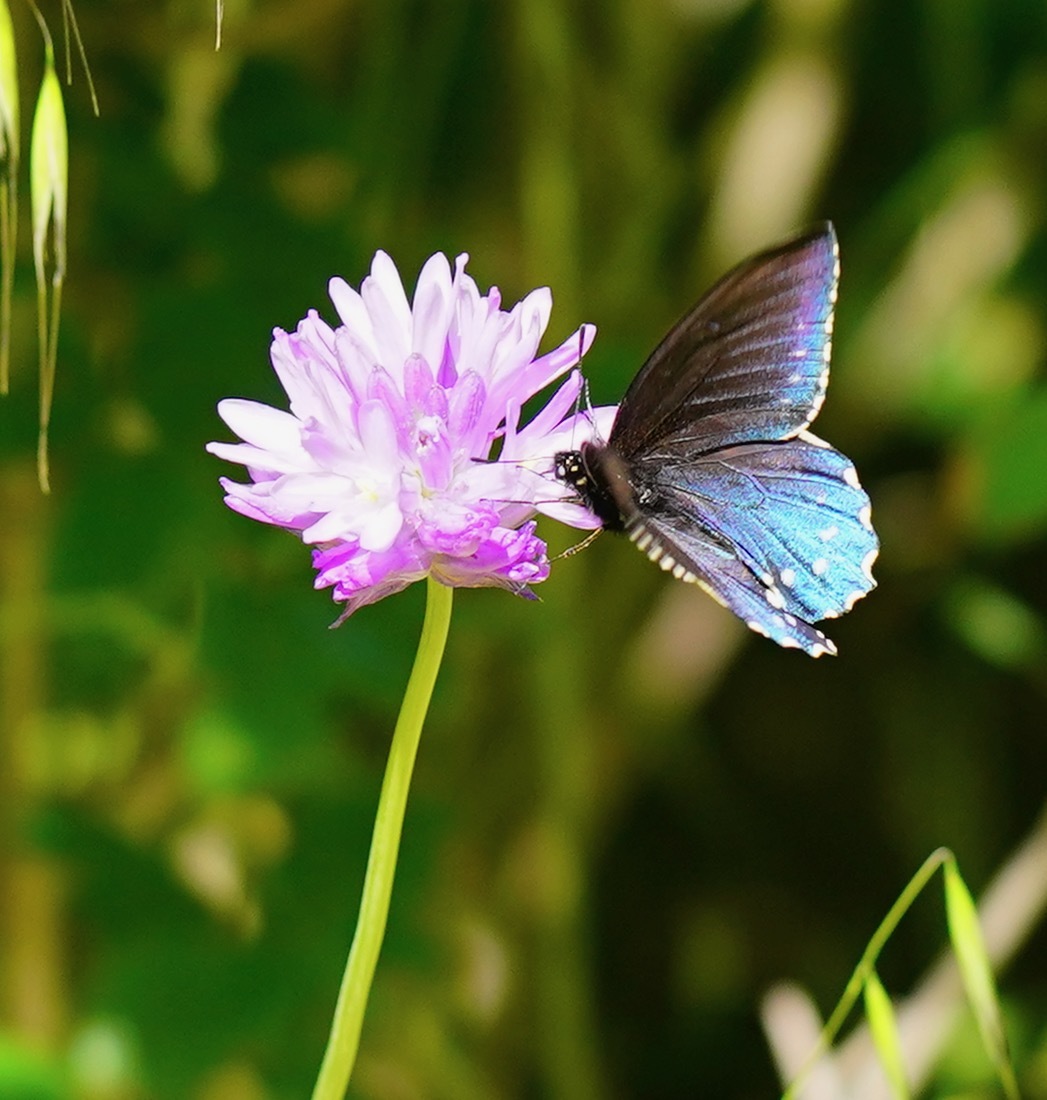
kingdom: Animalia
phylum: Arthropoda
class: Insecta
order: Lepidoptera
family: Papilionidae
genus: Battus
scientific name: Battus philenor
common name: Pipevine swallowtail
